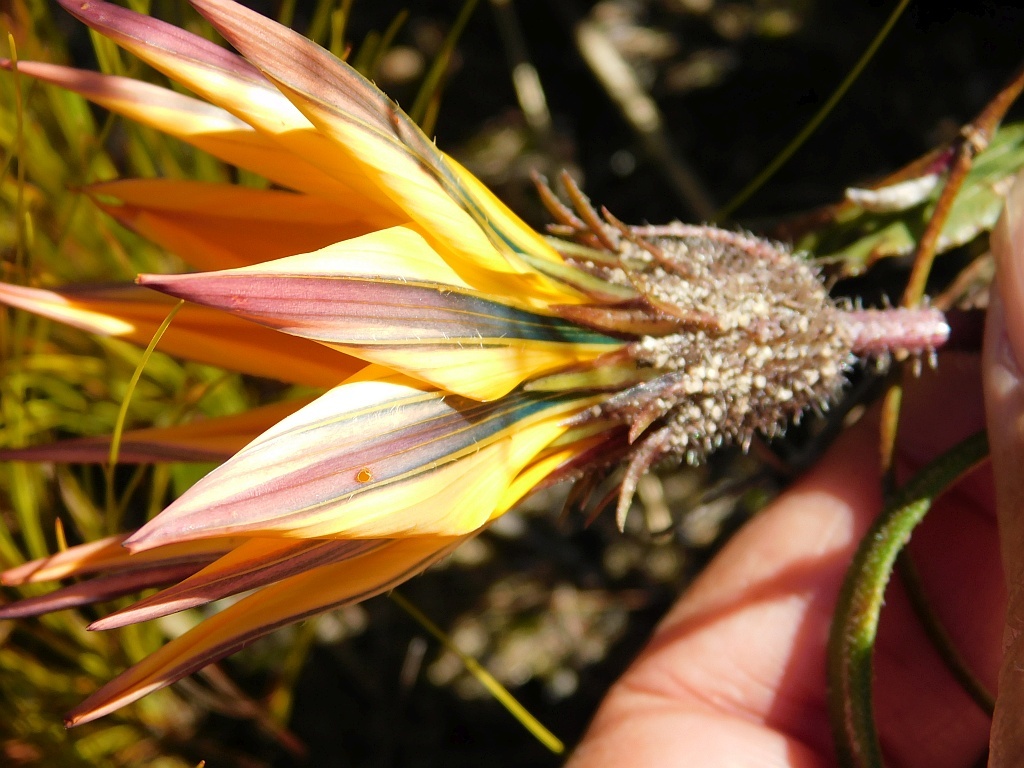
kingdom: Plantae
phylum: Tracheophyta
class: Magnoliopsida
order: Asterales
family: Asteraceae
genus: Gazania
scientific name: Gazania serrata
